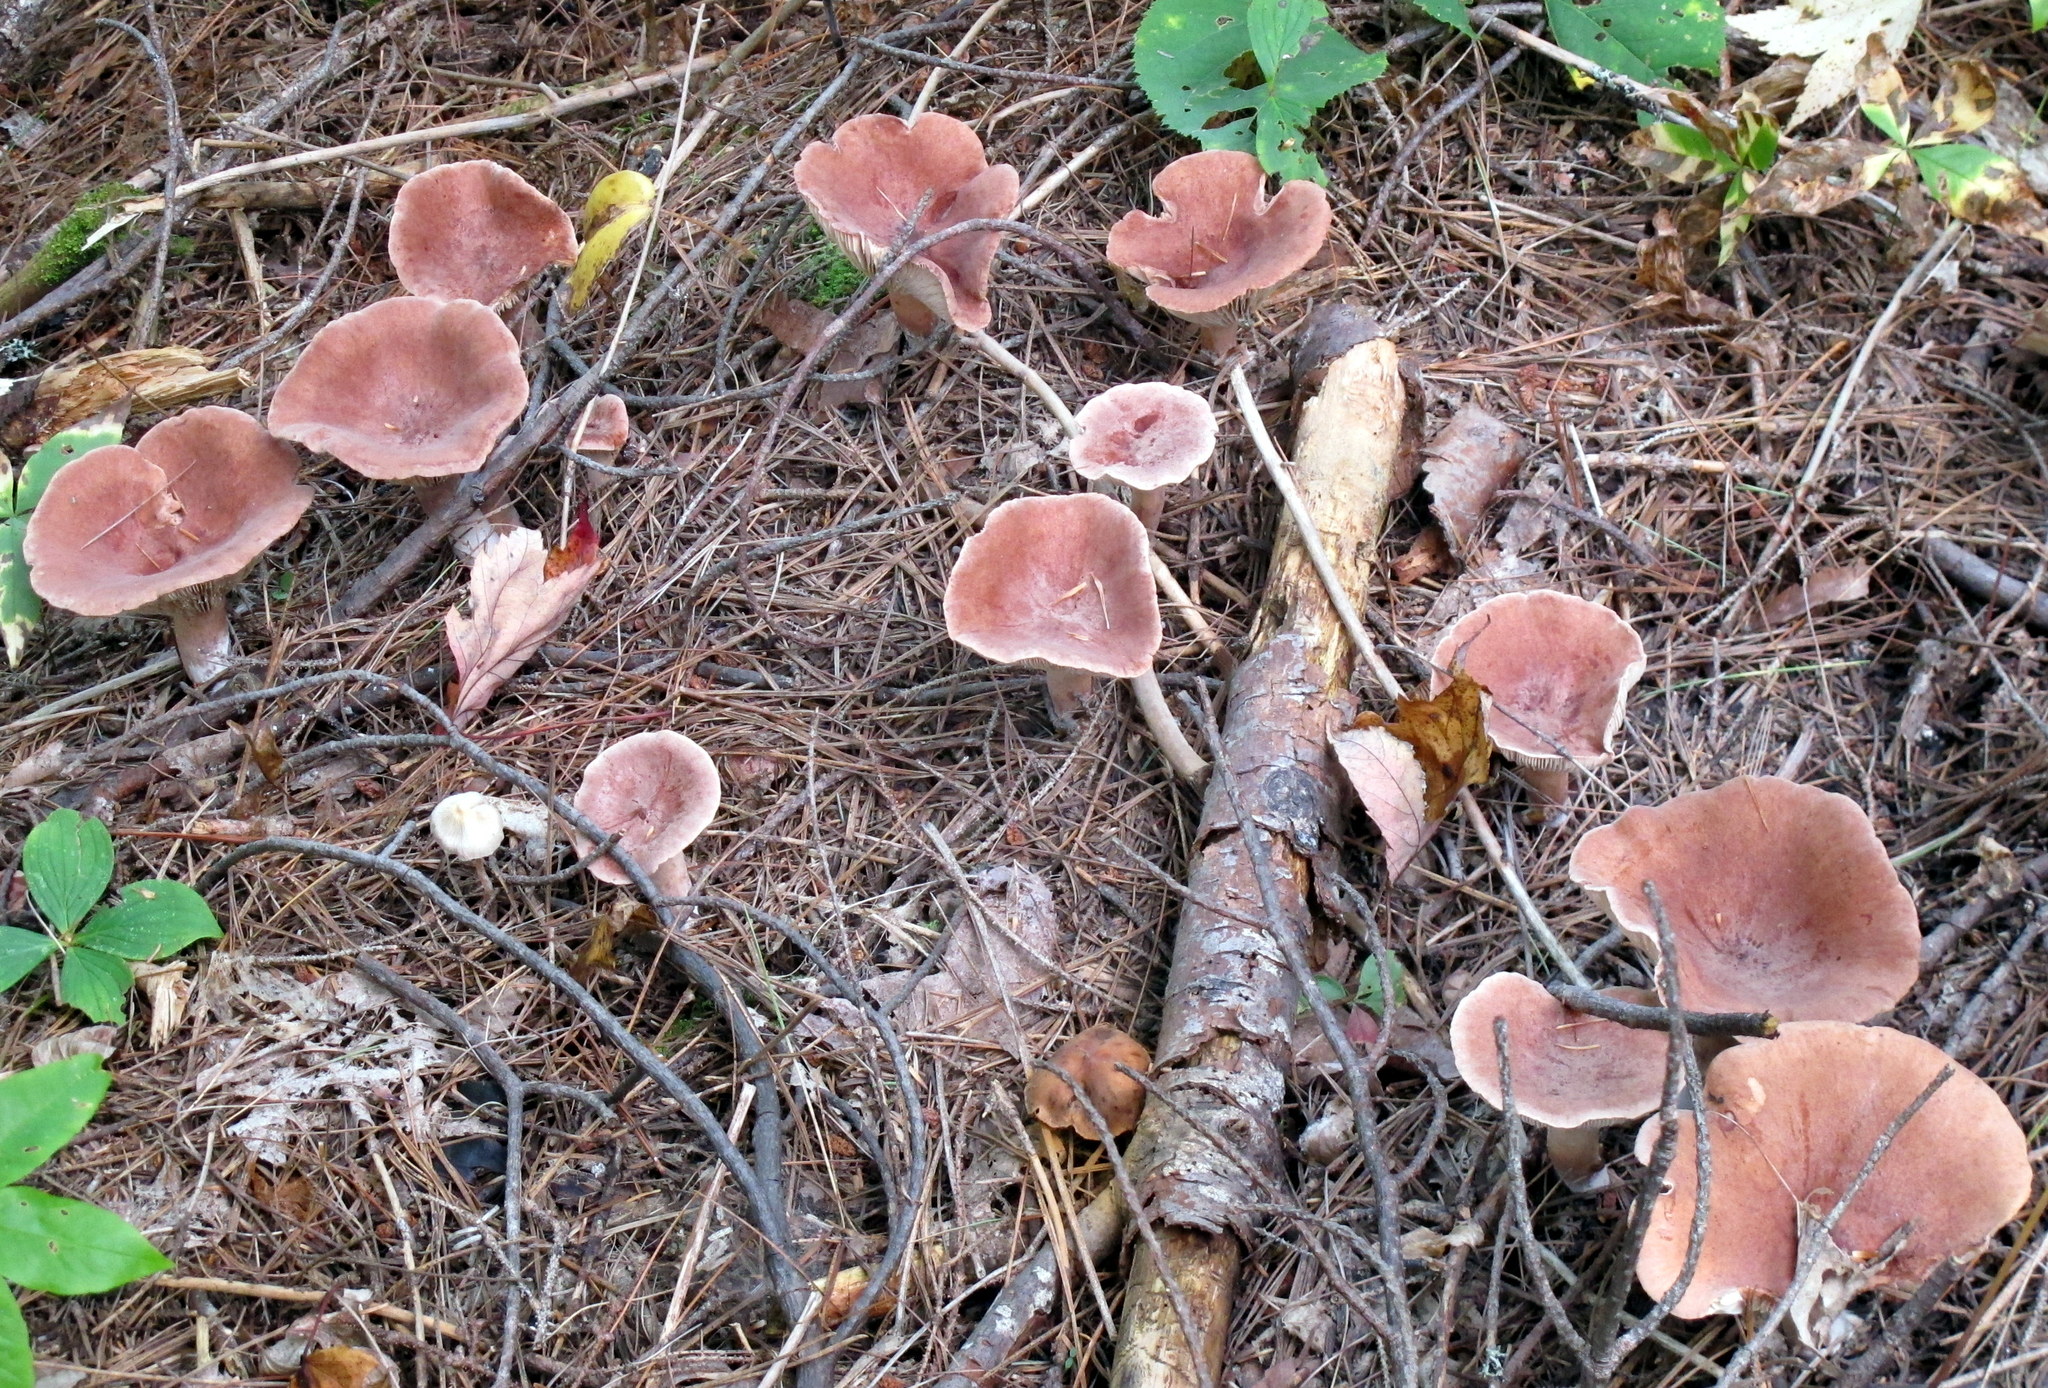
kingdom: Fungi
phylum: Basidiomycota
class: Agaricomycetes
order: Russulales
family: Russulaceae
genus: Lactarius
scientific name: Lactarius rufus
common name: Rufous milk-cap
